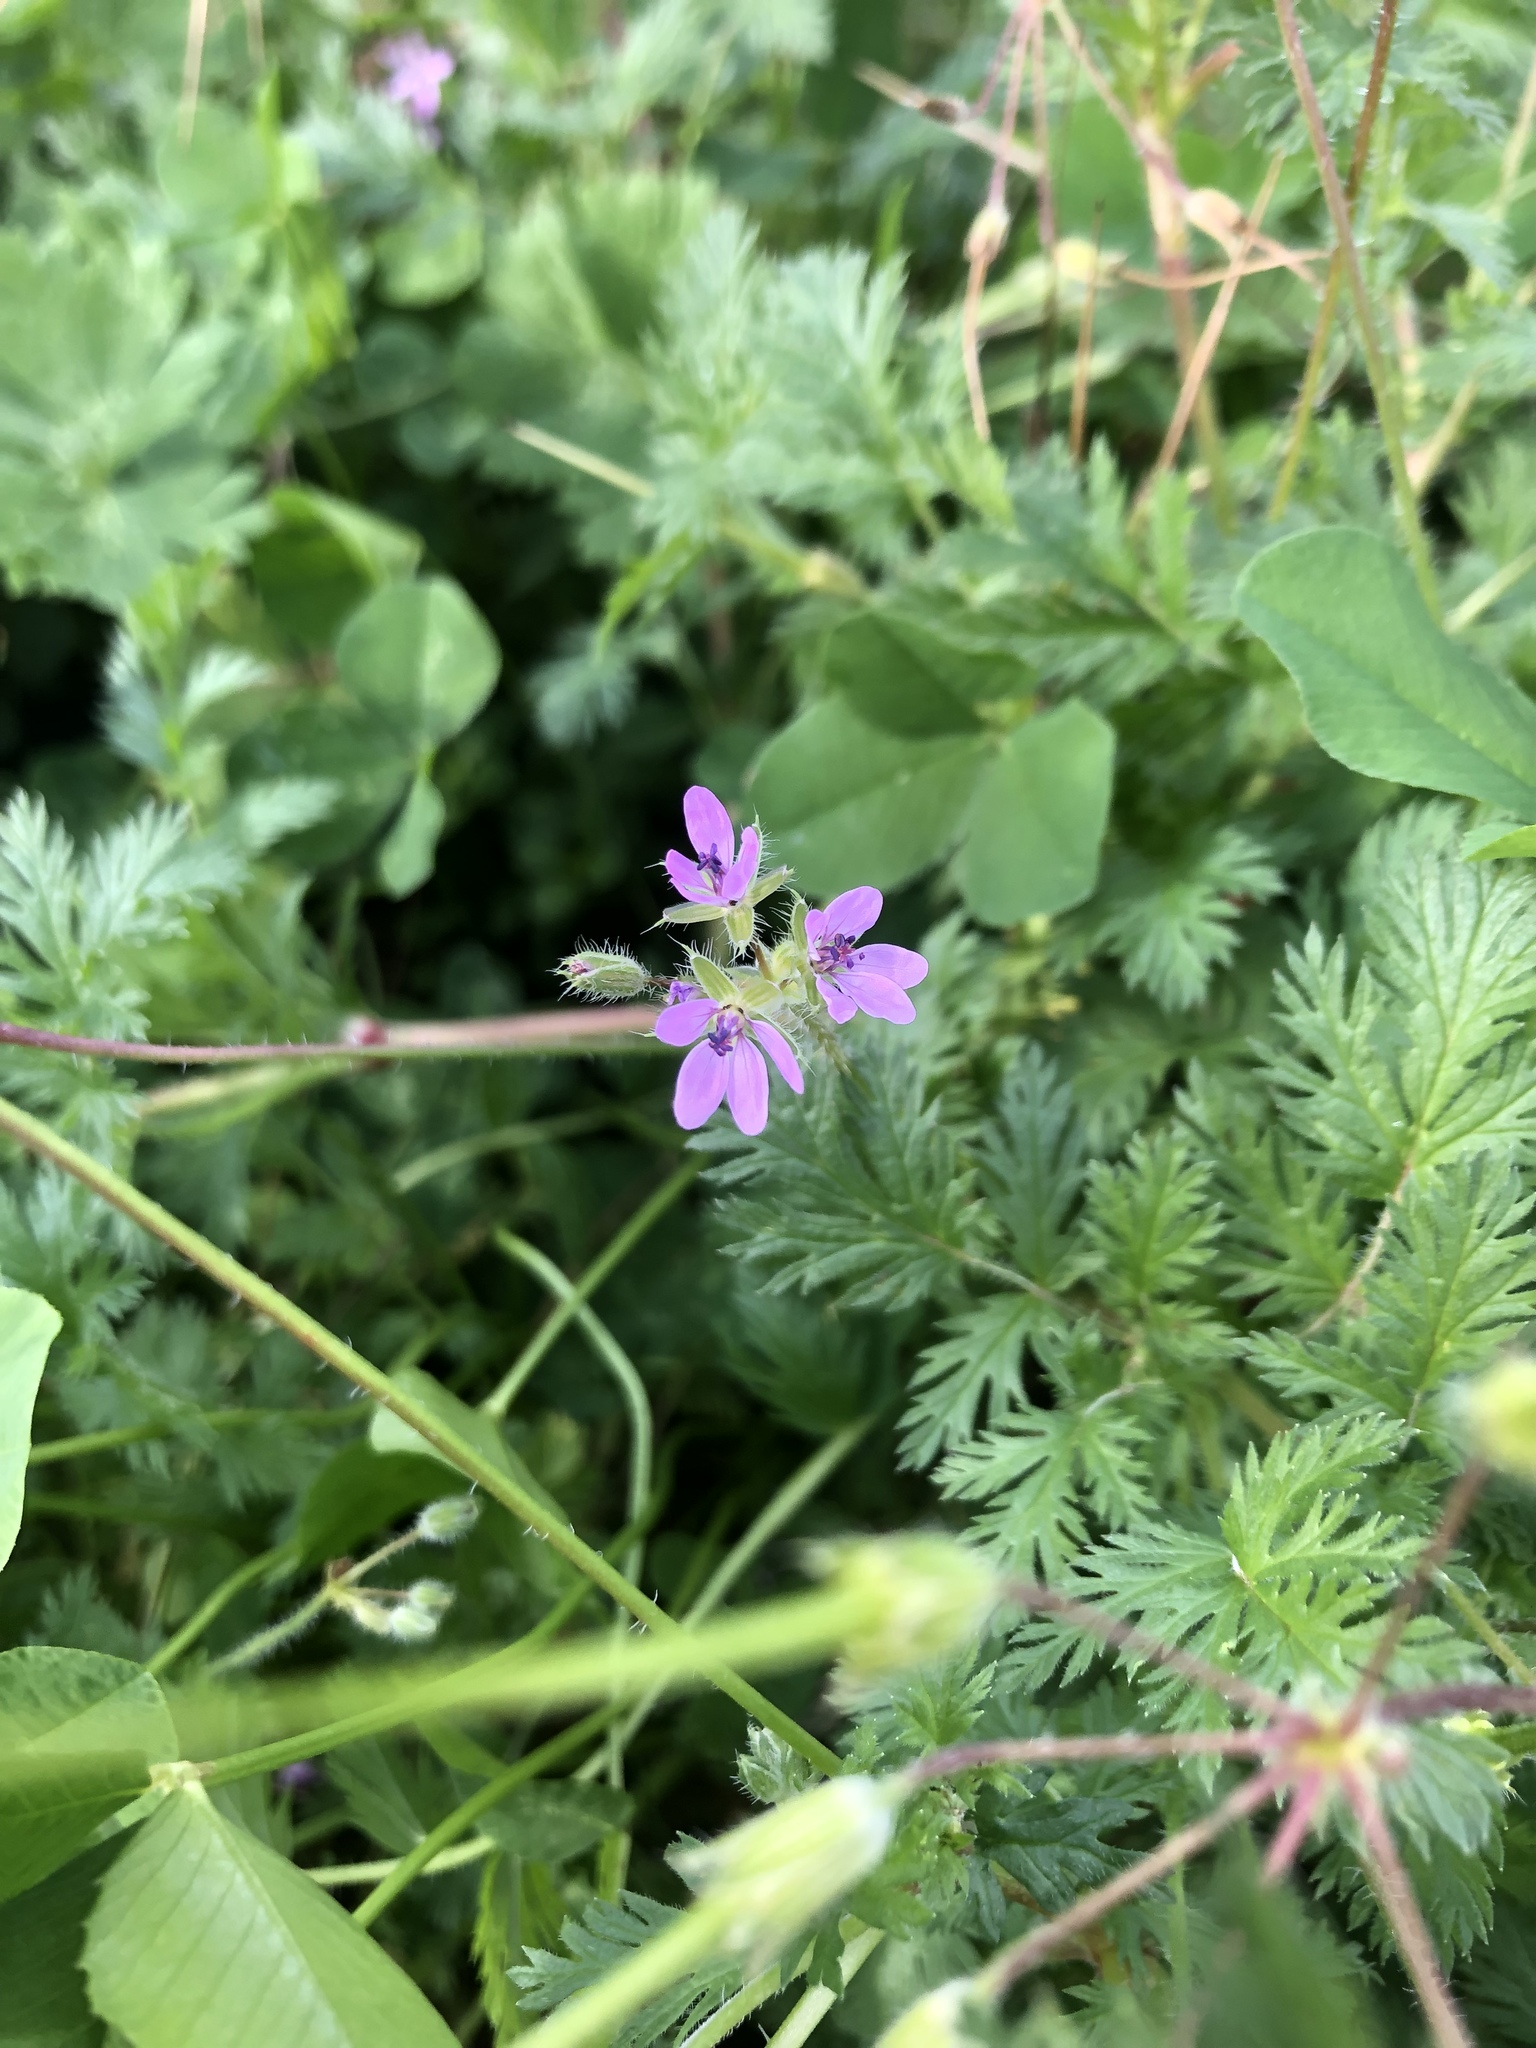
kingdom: Plantae
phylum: Tracheophyta
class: Magnoliopsida
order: Geraniales
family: Geraniaceae
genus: Erodium
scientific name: Erodium cicutarium
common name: Common stork's-bill
